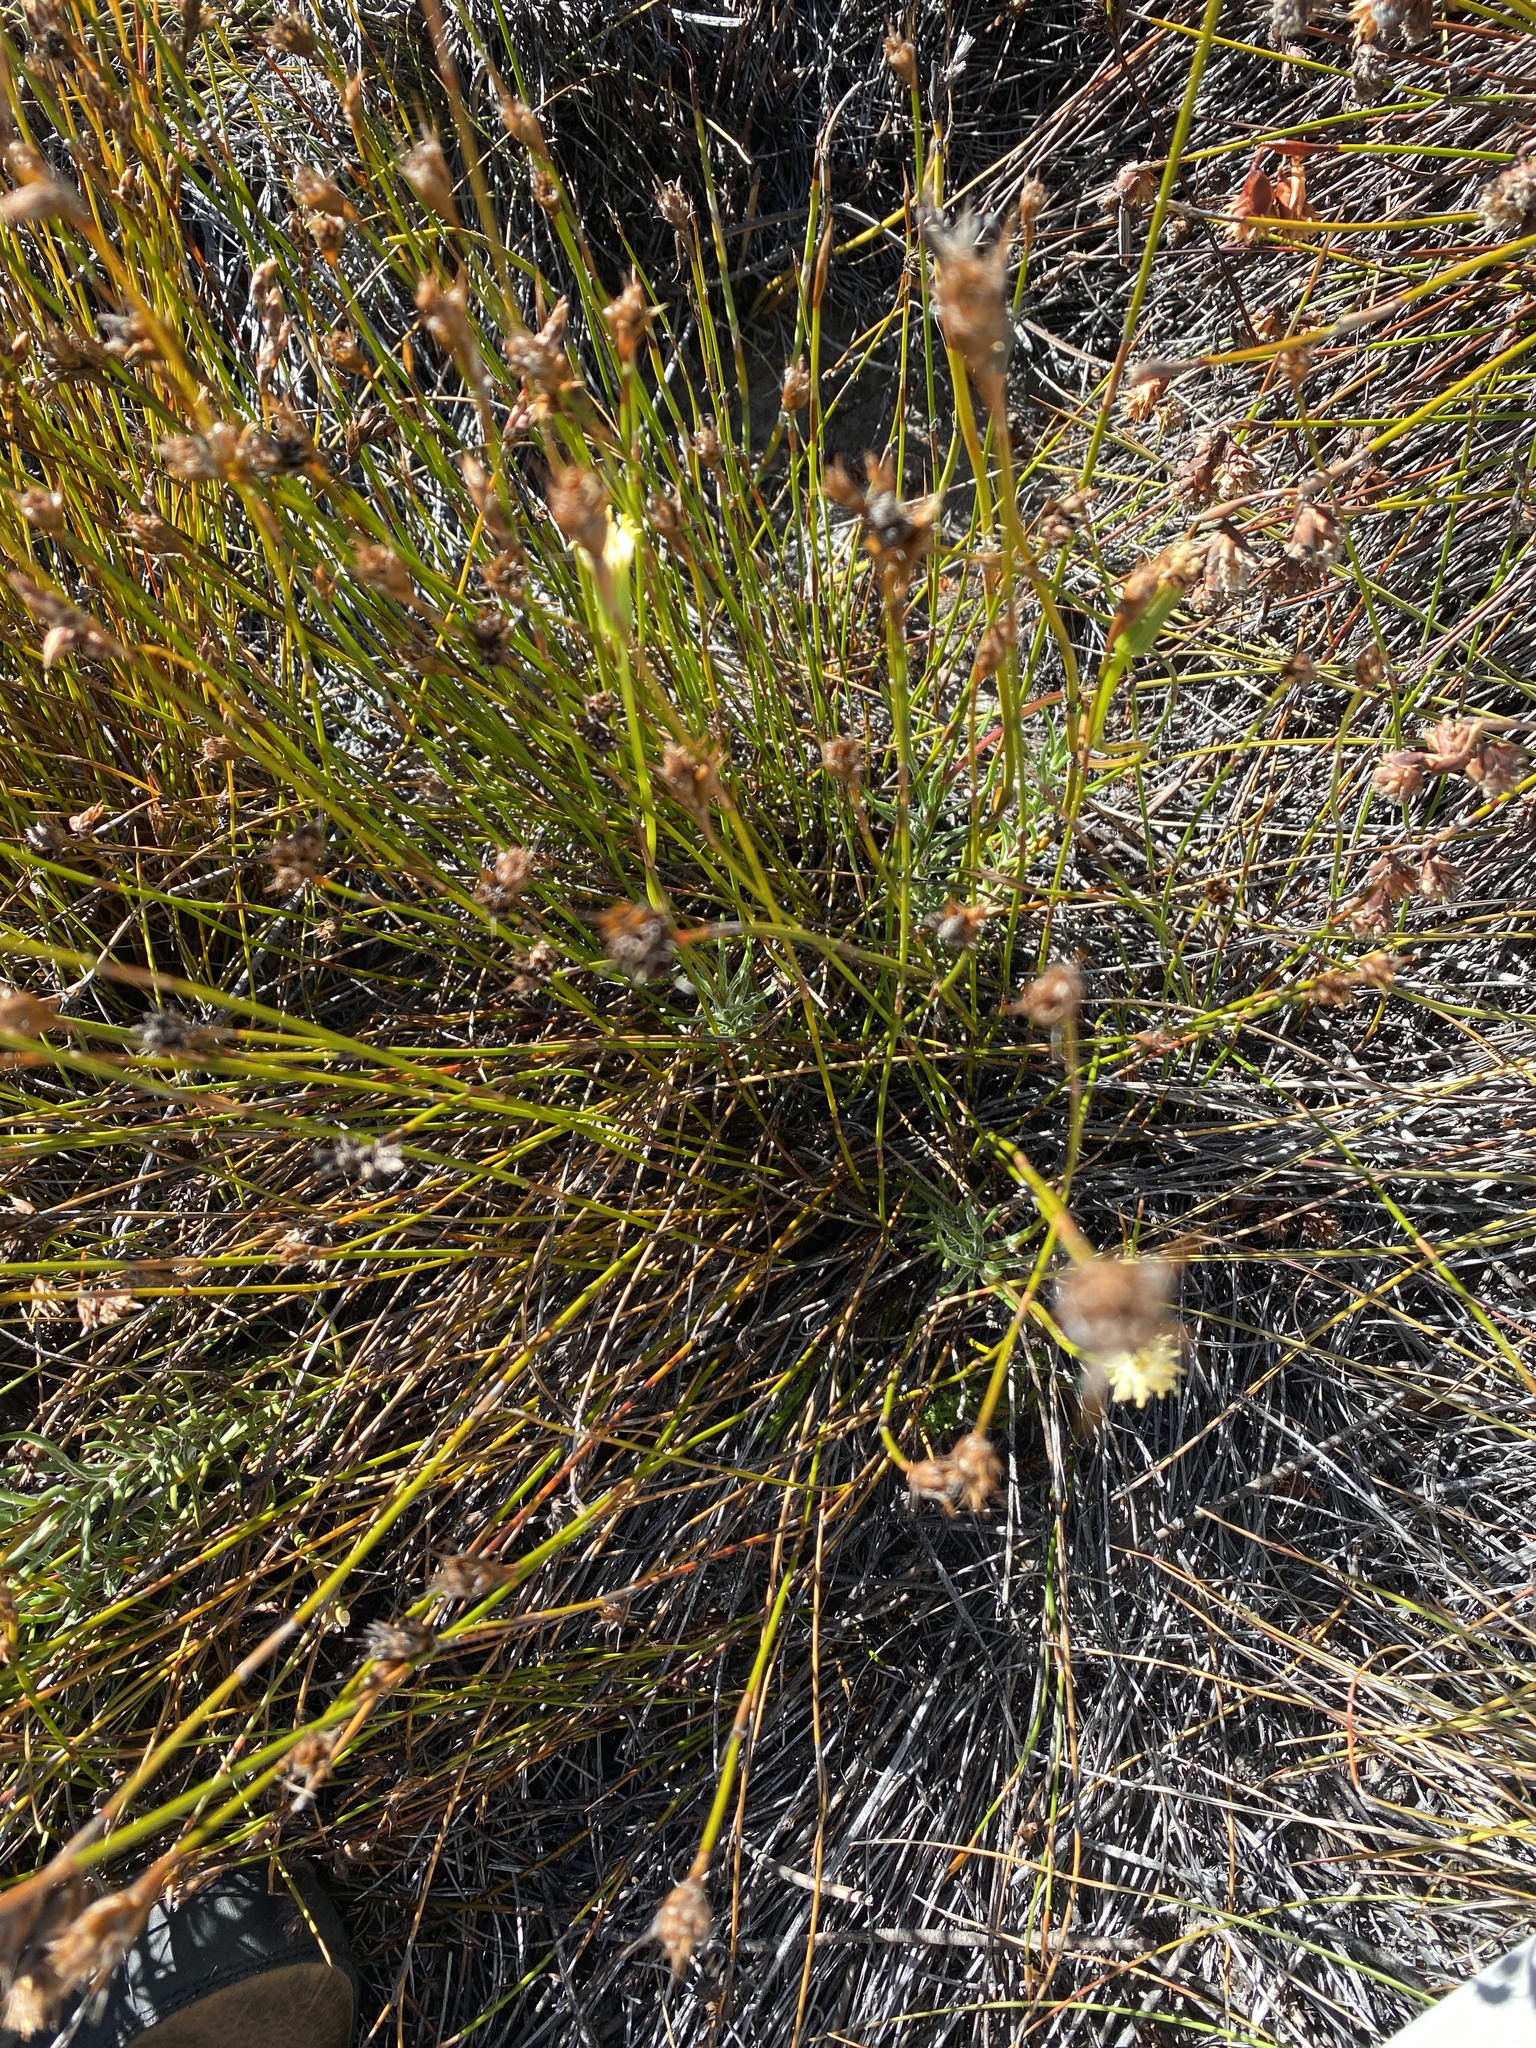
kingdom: Plantae
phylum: Tracheophyta
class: Magnoliopsida
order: Asterales
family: Asteraceae
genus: Lamprocephalus
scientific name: Lamprocephalus montanus
